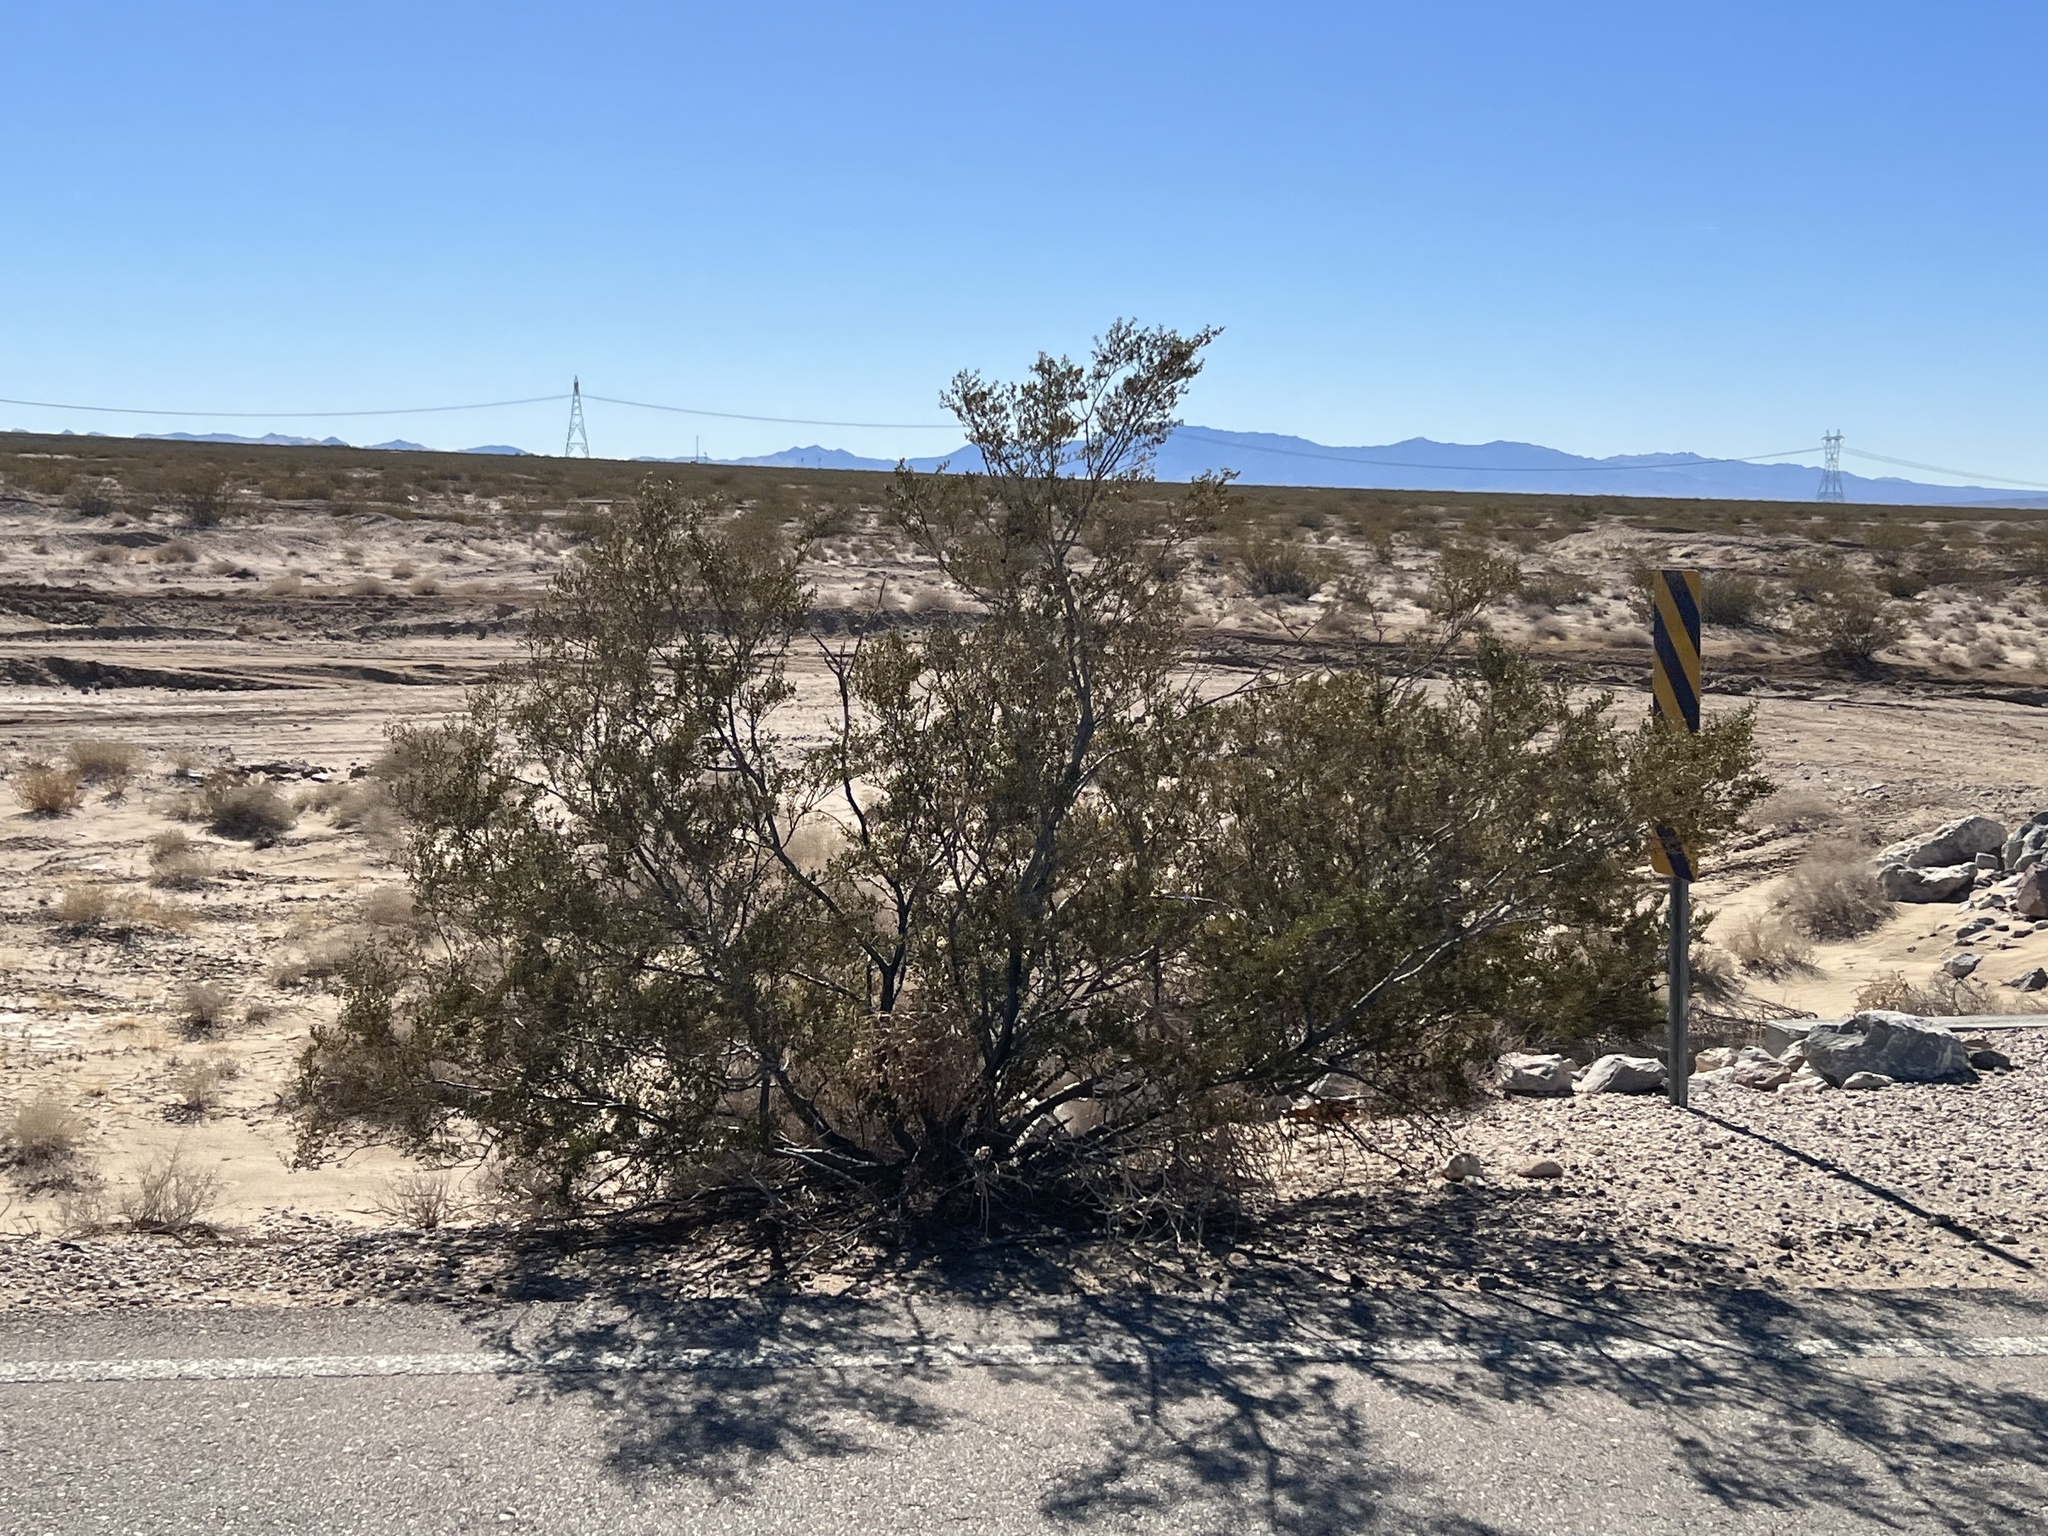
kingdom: Plantae
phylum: Tracheophyta
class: Magnoliopsida
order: Zygophyllales
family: Zygophyllaceae
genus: Larrea
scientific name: Larrea tridentata
